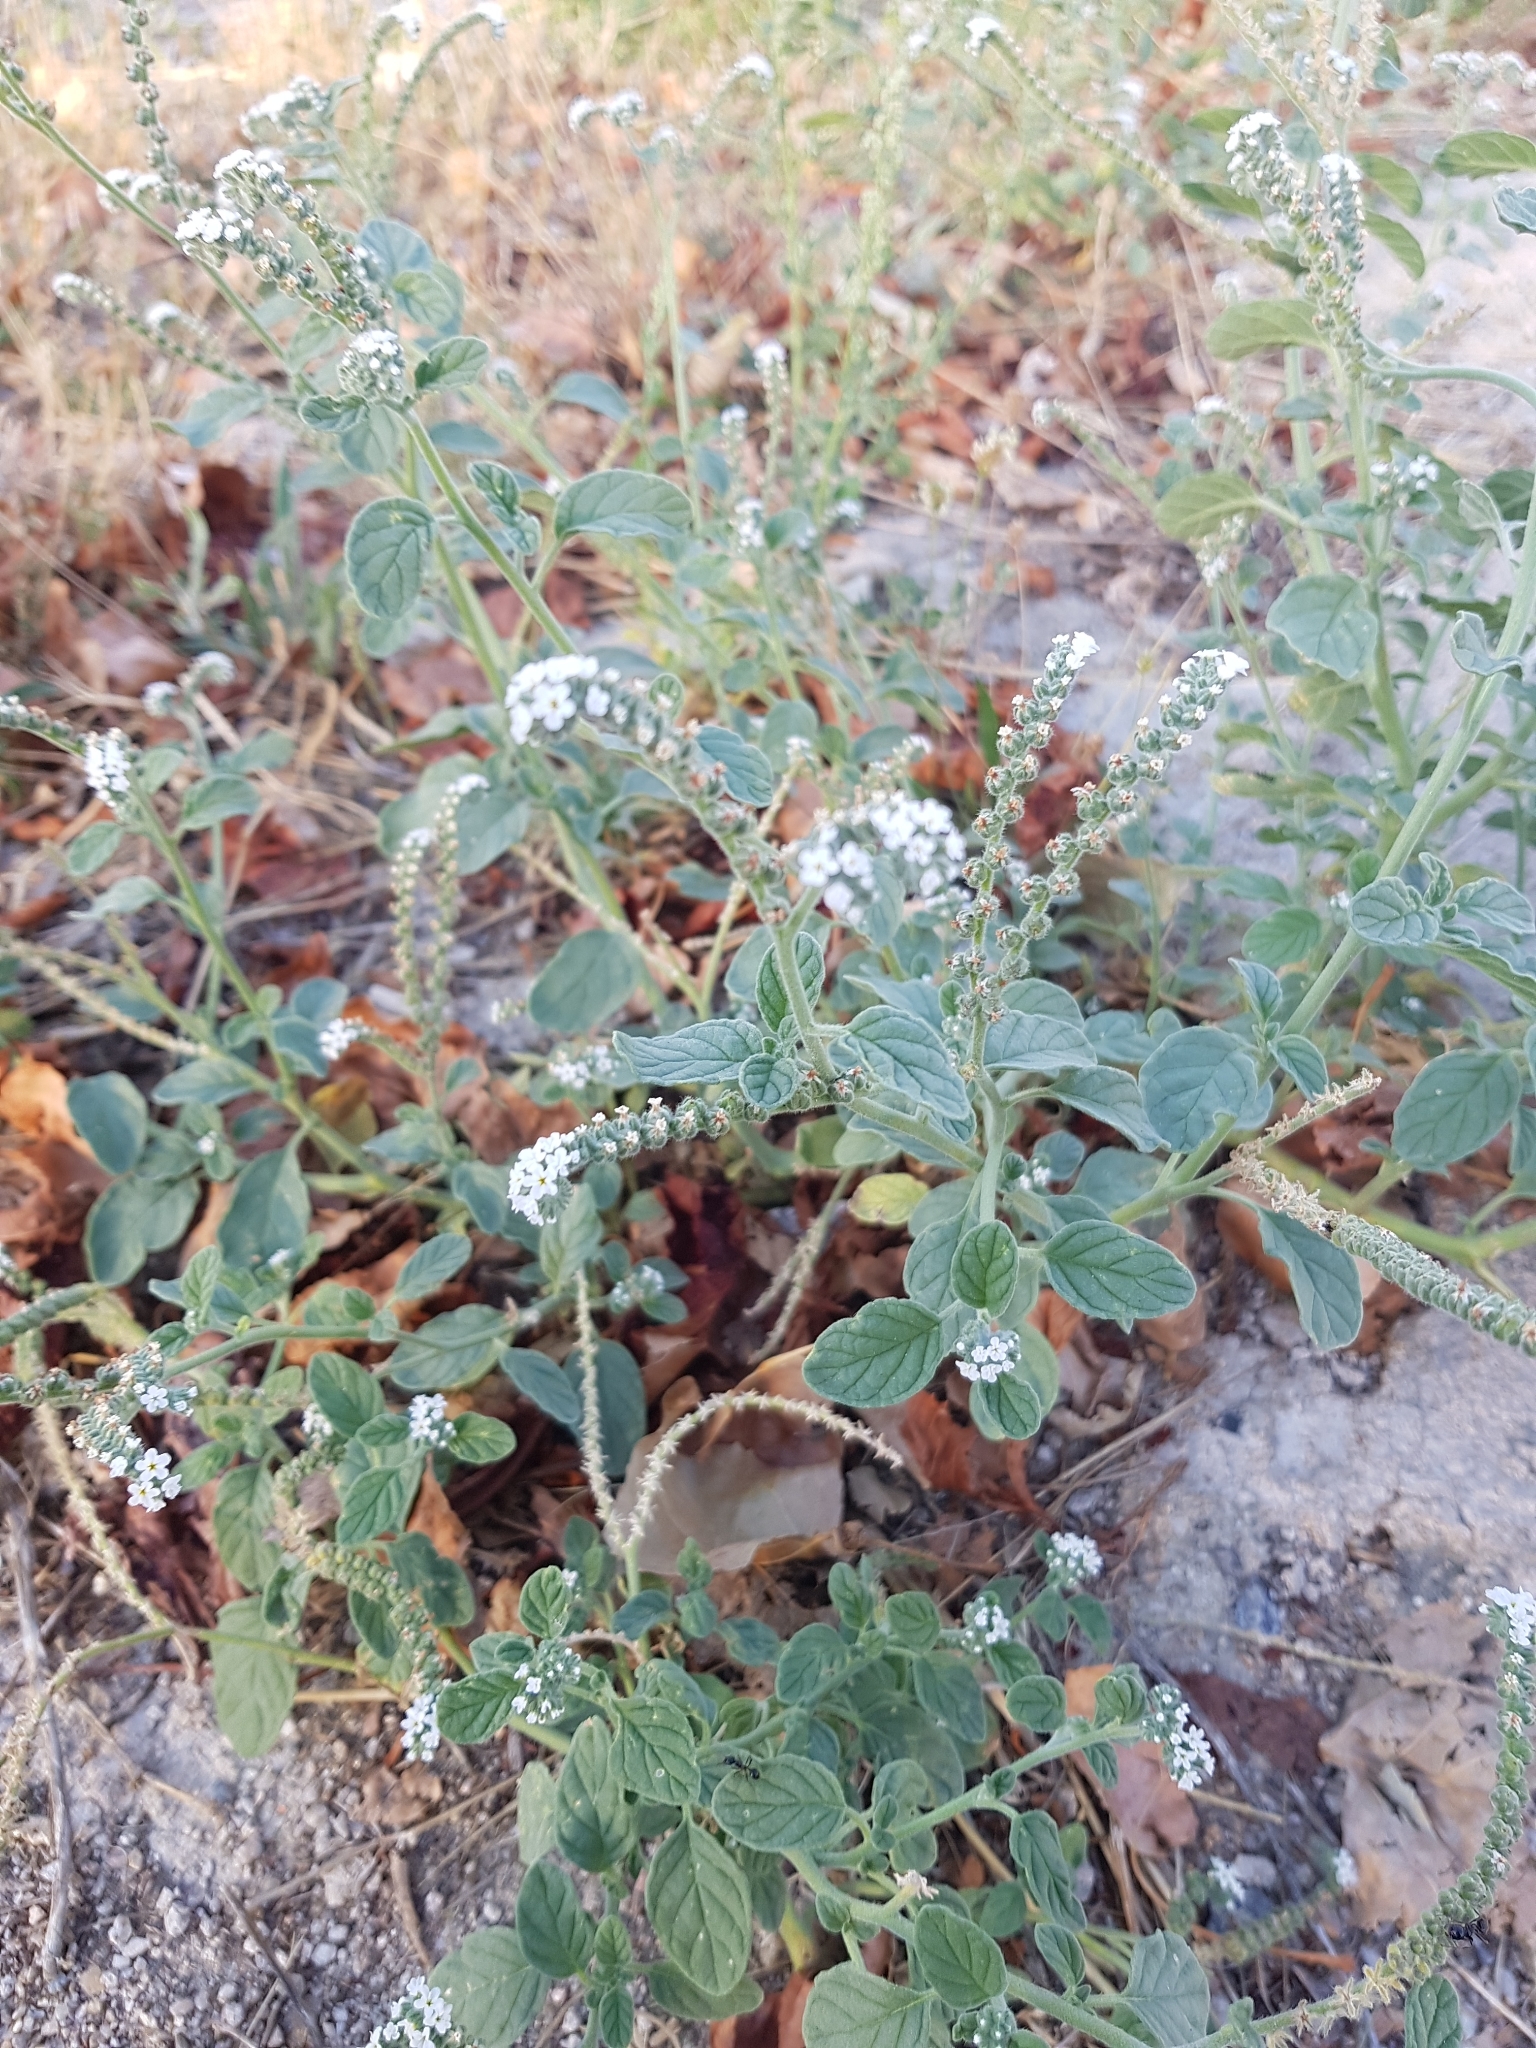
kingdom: Plantae
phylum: Tracheophyta
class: Magnoliopsida
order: Boraginales
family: Heliotropiaceae
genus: Heliotropium
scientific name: Heliotropium europaeum
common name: European heliotrope
